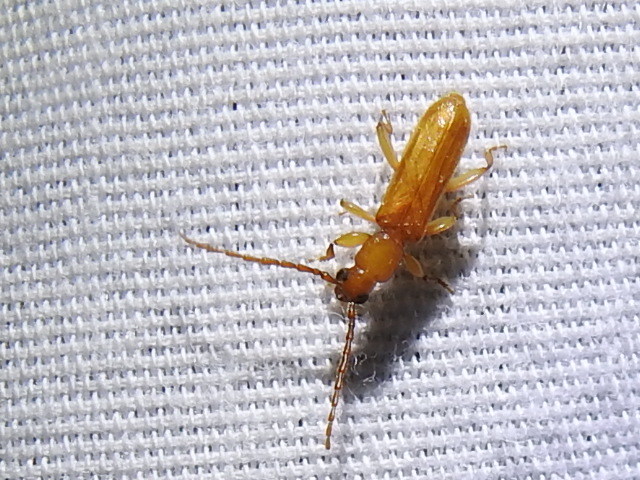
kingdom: Animalia
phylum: Arthropoda
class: Insecta
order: Coleoptera
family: Cerambycidae
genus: Smodicum
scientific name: Smodicum cucujiforme
